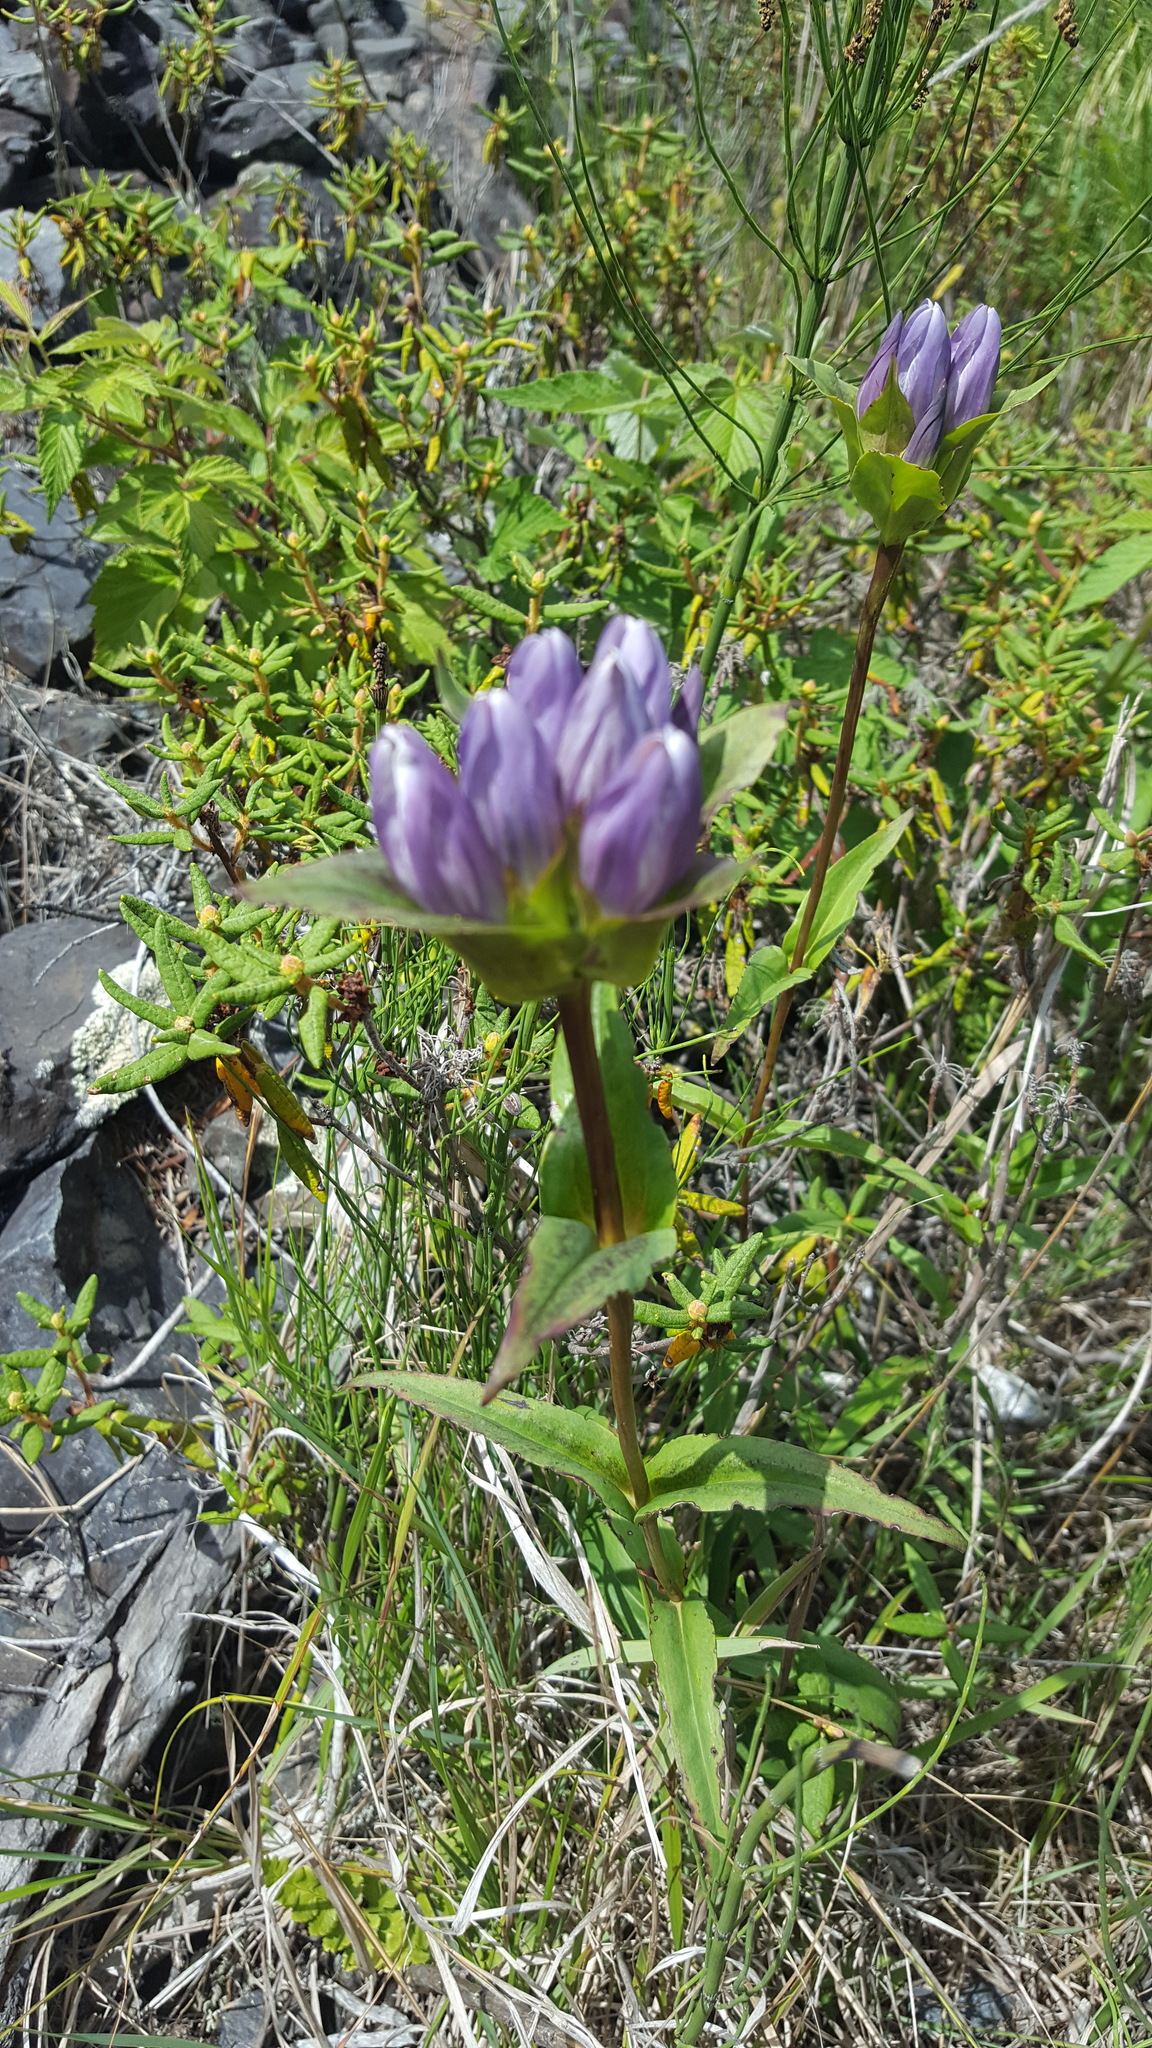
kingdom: Plantae
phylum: Tracheophyta
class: Magnoliopsida
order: Gentianales
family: Gentianaceae
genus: Gentiana
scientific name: Gentiana rubricaulis
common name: Purple-stemmed gentian
